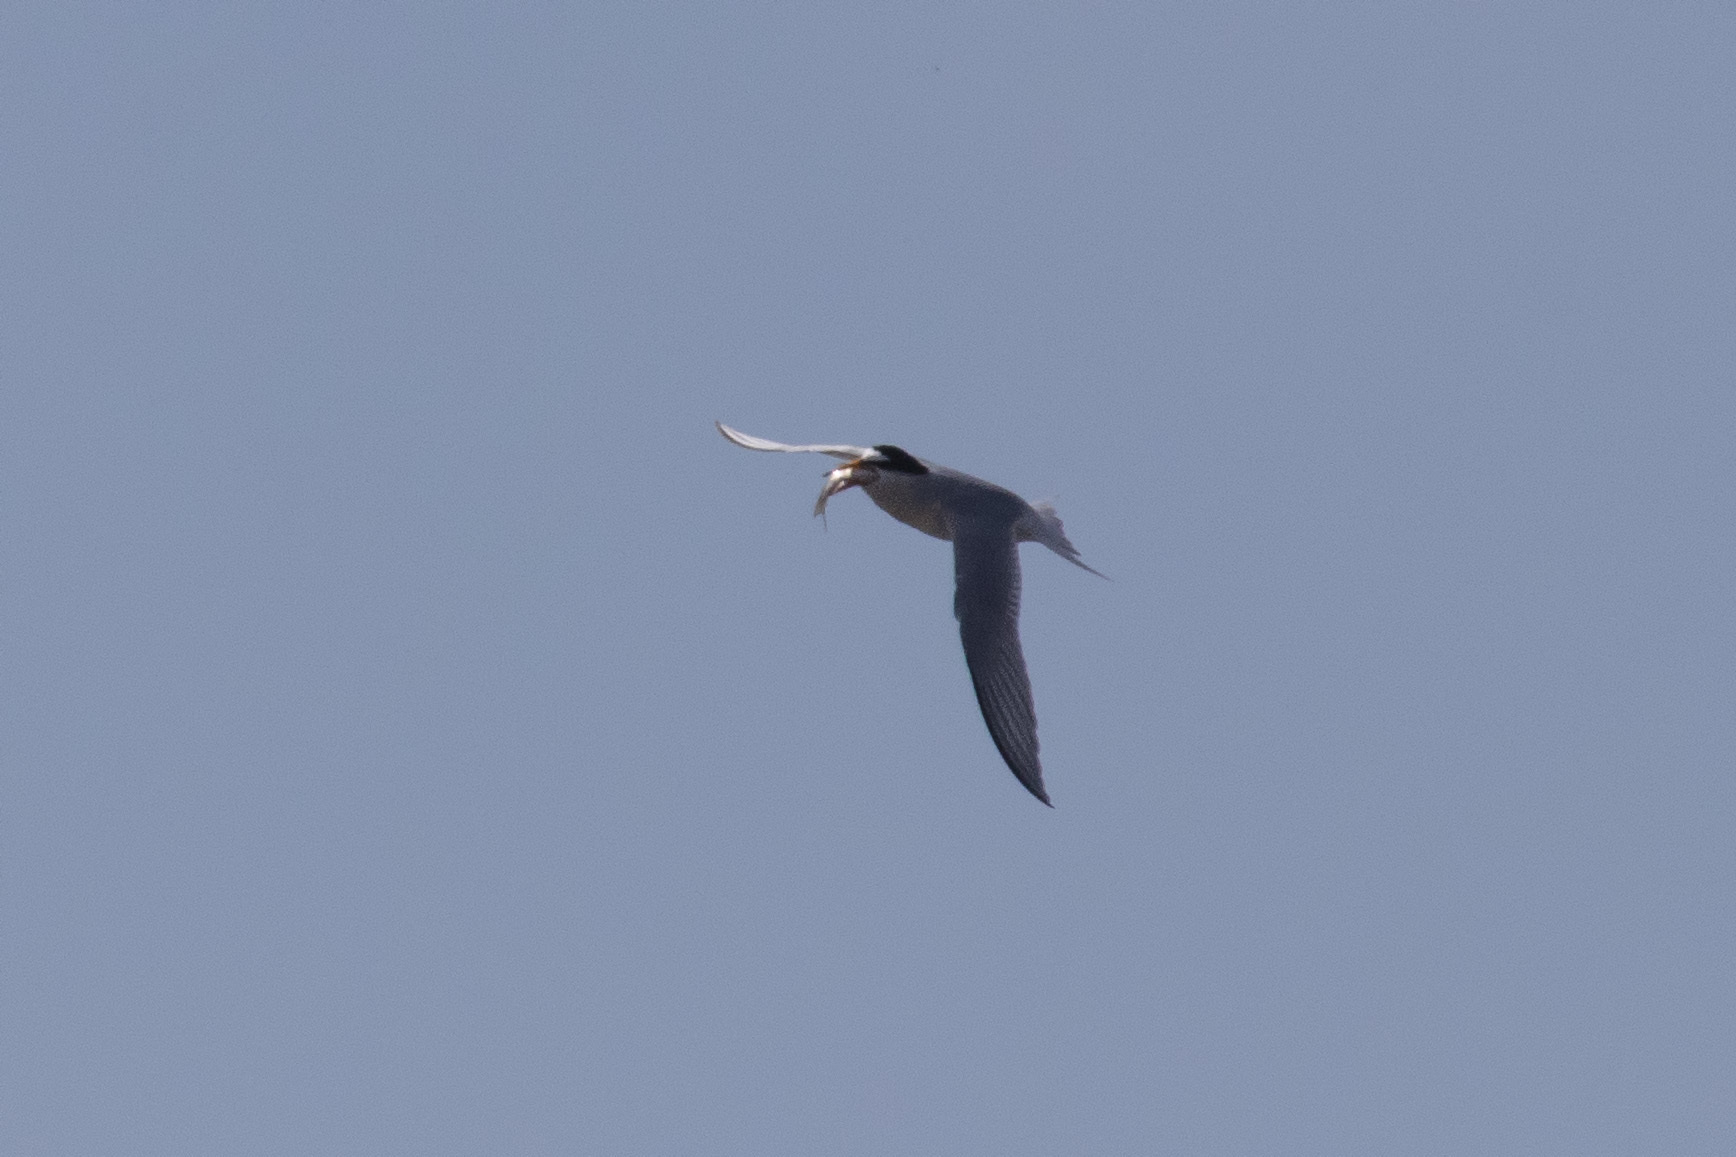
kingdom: Animalia
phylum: Chordata
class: Aves
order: Charadriiformes
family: Laridae
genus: Sternula
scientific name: Sternula albifrons
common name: Little tern
